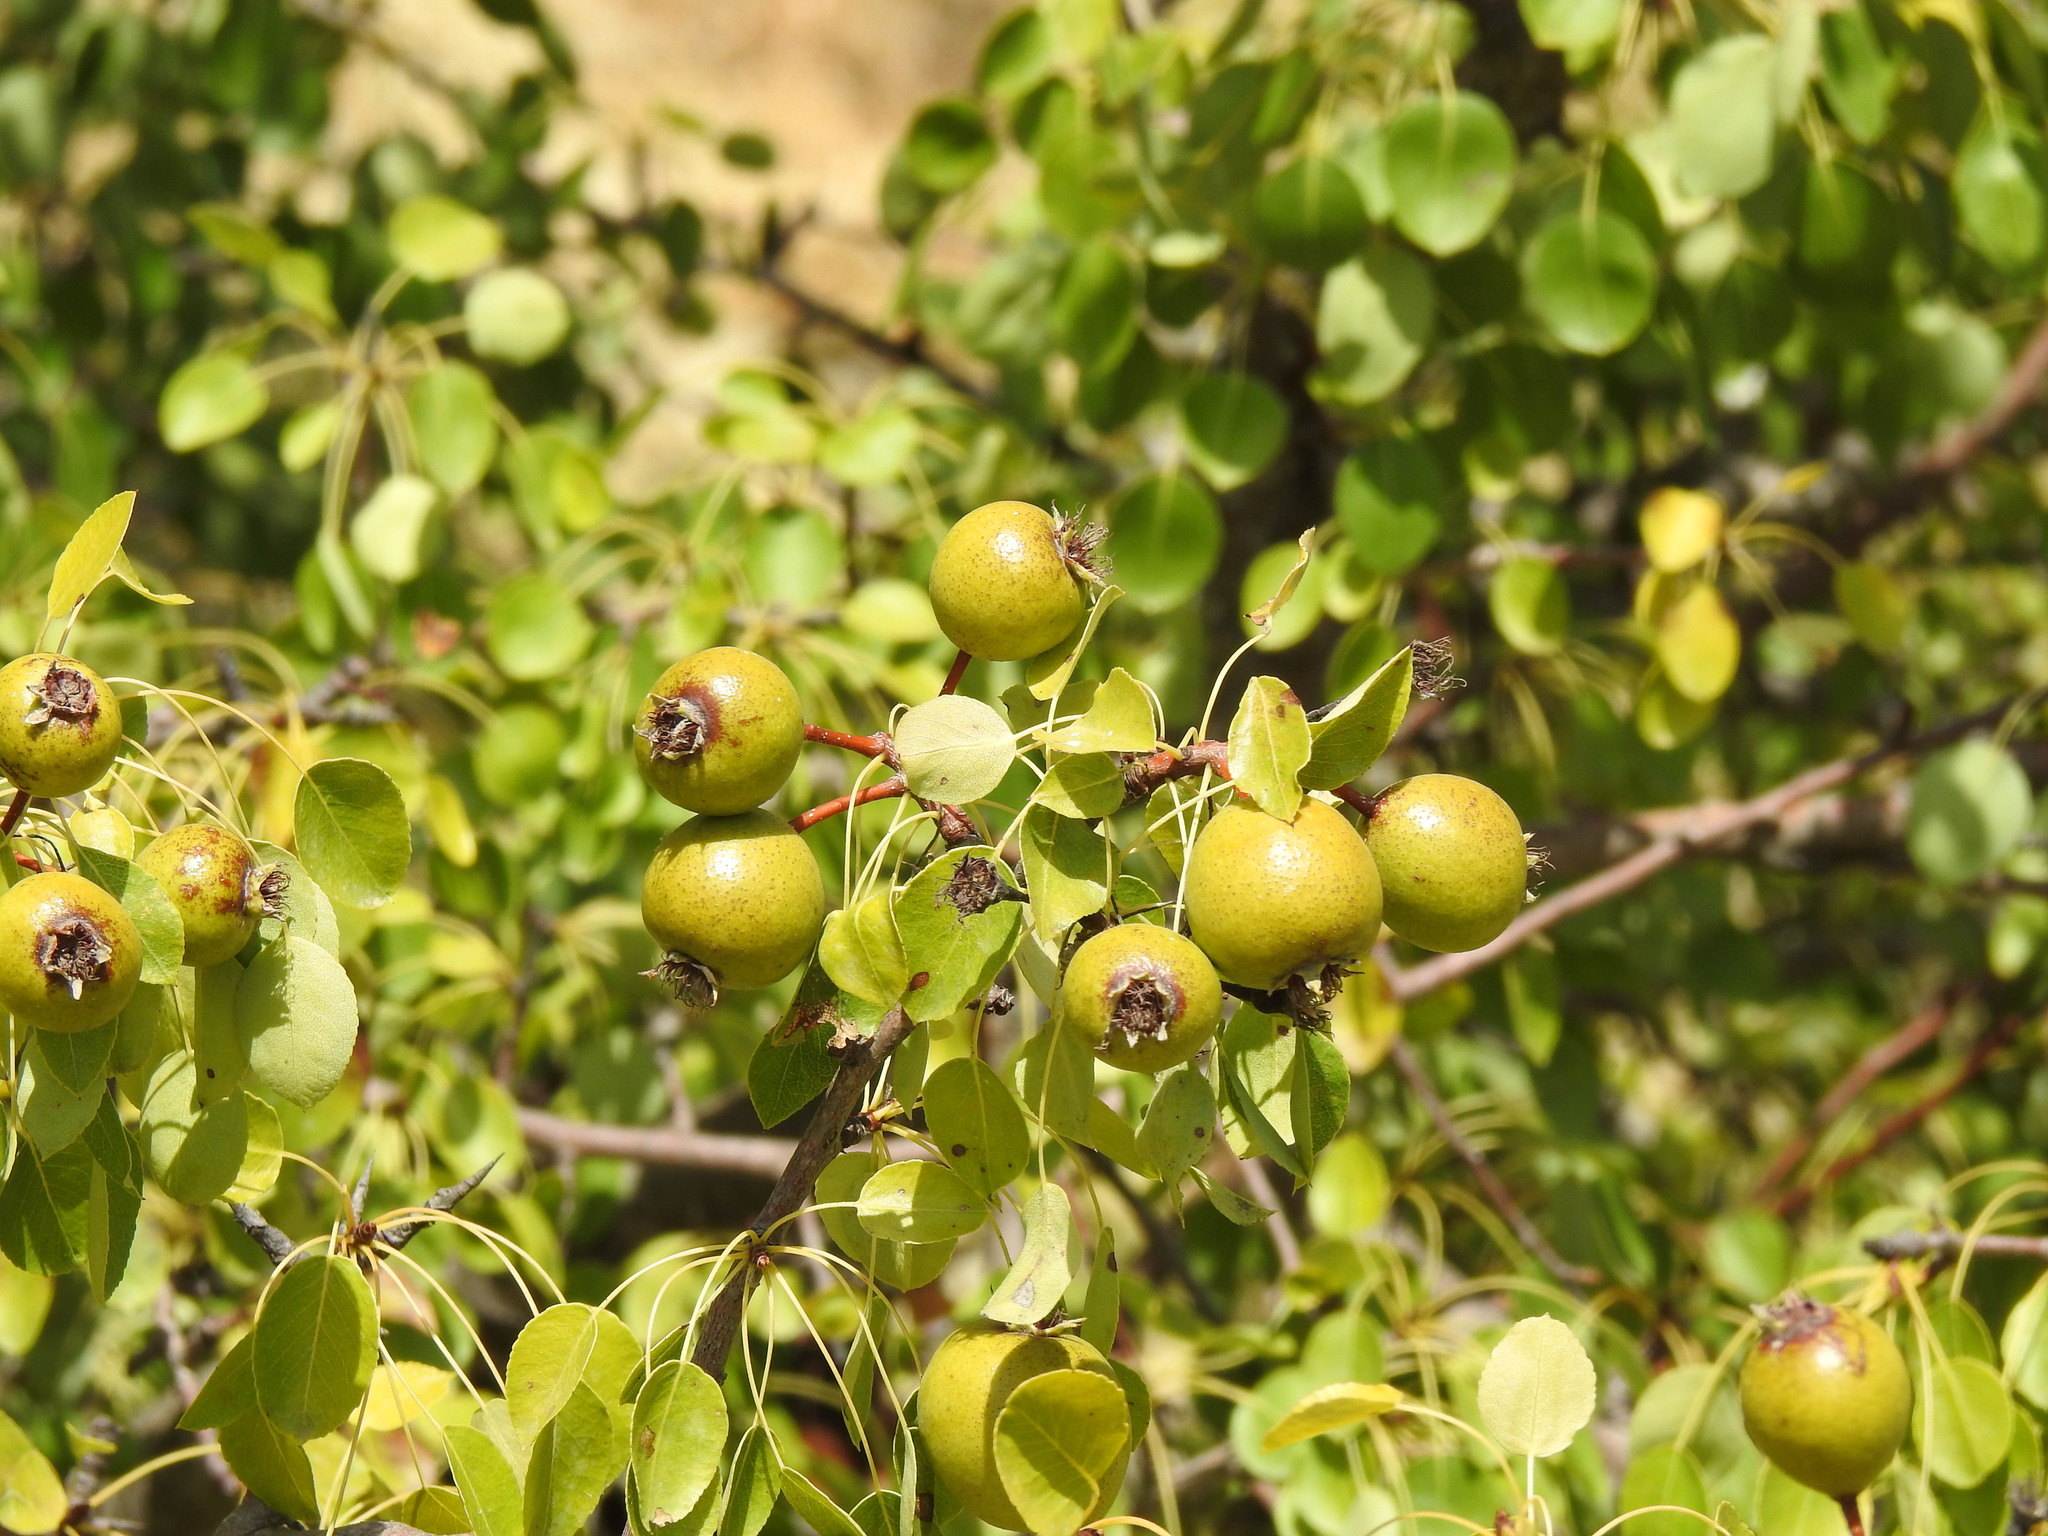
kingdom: Plantae
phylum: Tracheophyta
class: Magnoliopsida
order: Rosales
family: Rosaceae
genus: Pyrus
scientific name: Pyrus bourgaeana
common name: Iberian pear
